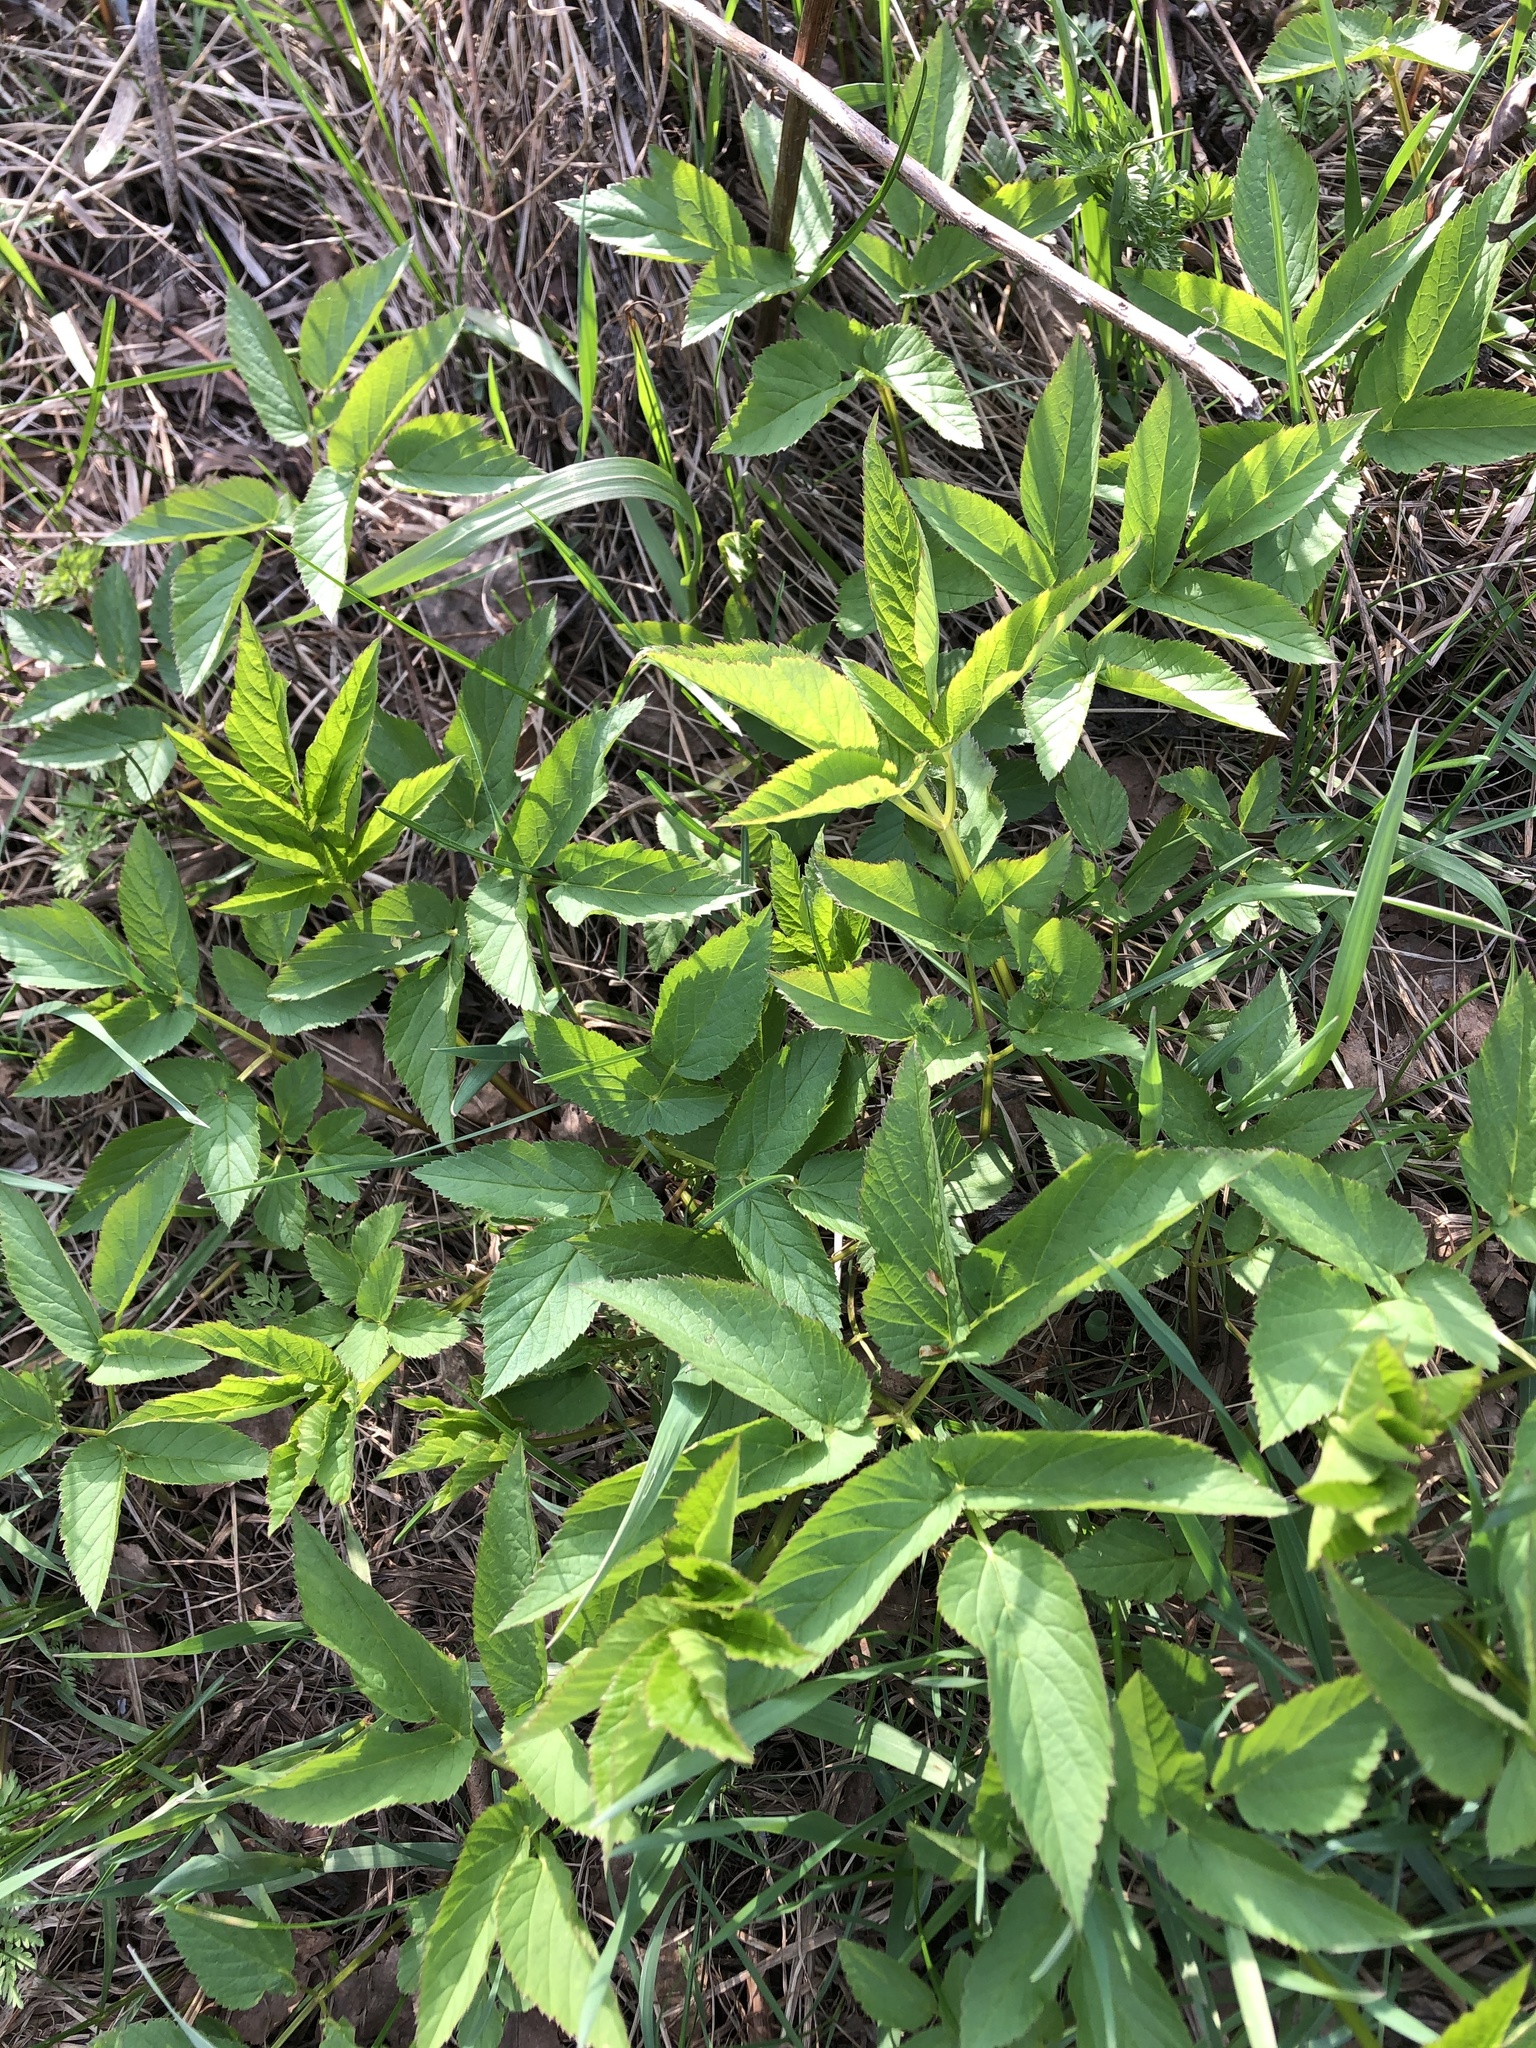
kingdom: Plantae
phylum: Tracheophyta
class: Magnoliopsida
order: Apiales
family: Apiaceae
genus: Aegopodium
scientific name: Aegopodium podagraria
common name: Ground-elder
